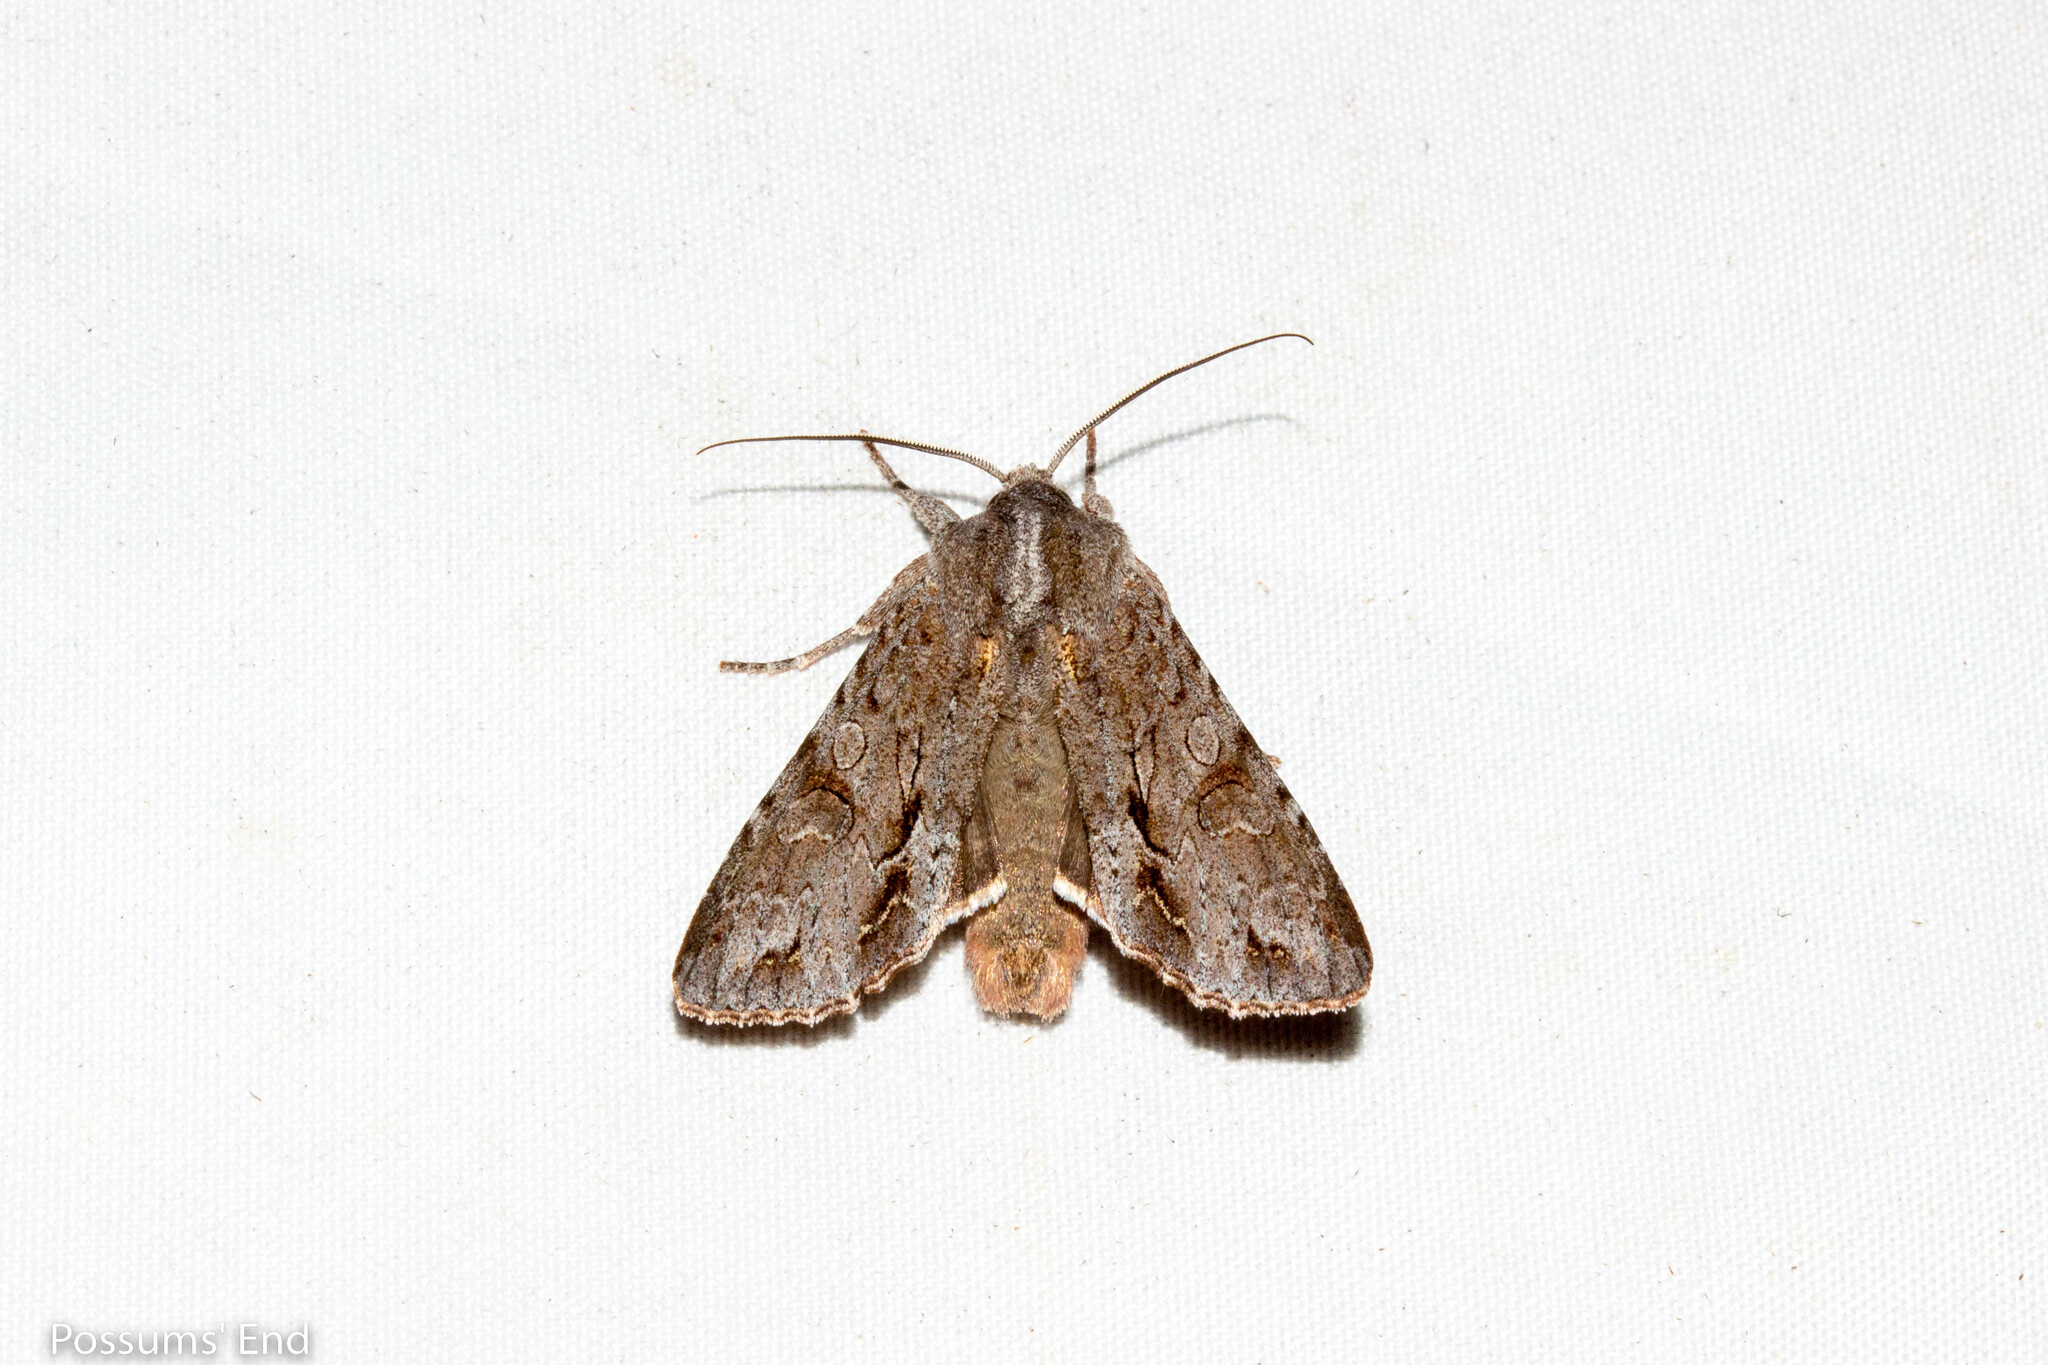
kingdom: Animalia
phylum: Arthropoda
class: Insecta
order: Lepidoptera
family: Noctuidae
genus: Ichneutica
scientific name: Ichneutica
